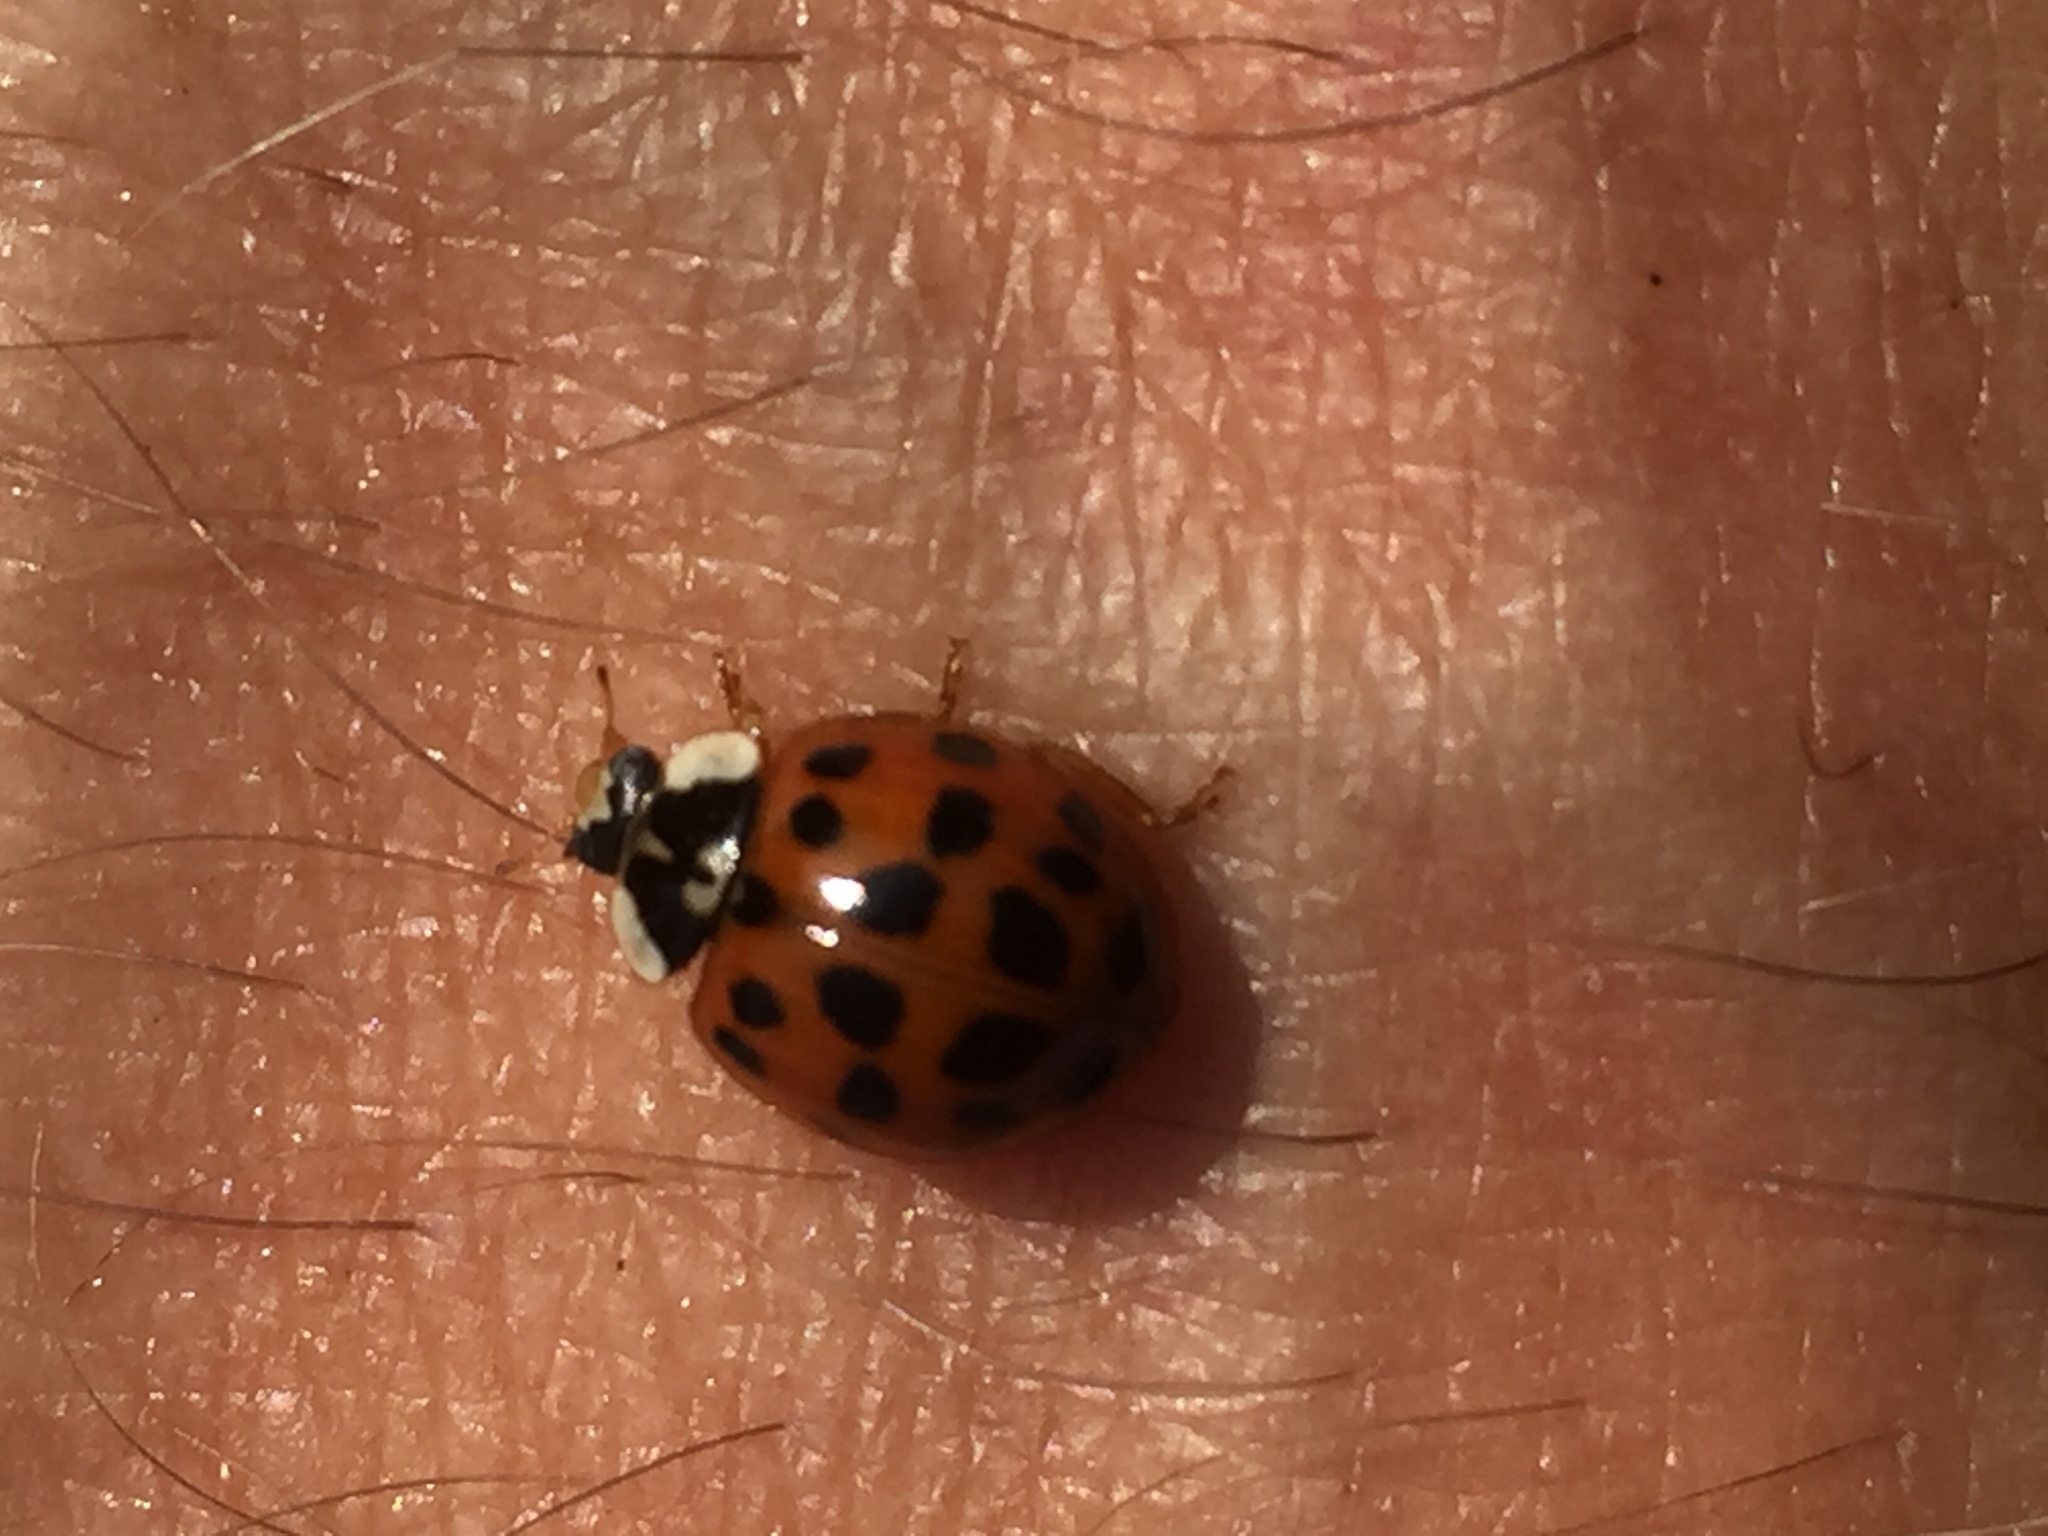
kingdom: Animalia
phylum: Arthropoda
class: Insecta
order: Coleoptera
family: Coccinellidae
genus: Harmonia
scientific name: Harmonia axyridis
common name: Harlequin ladybird
